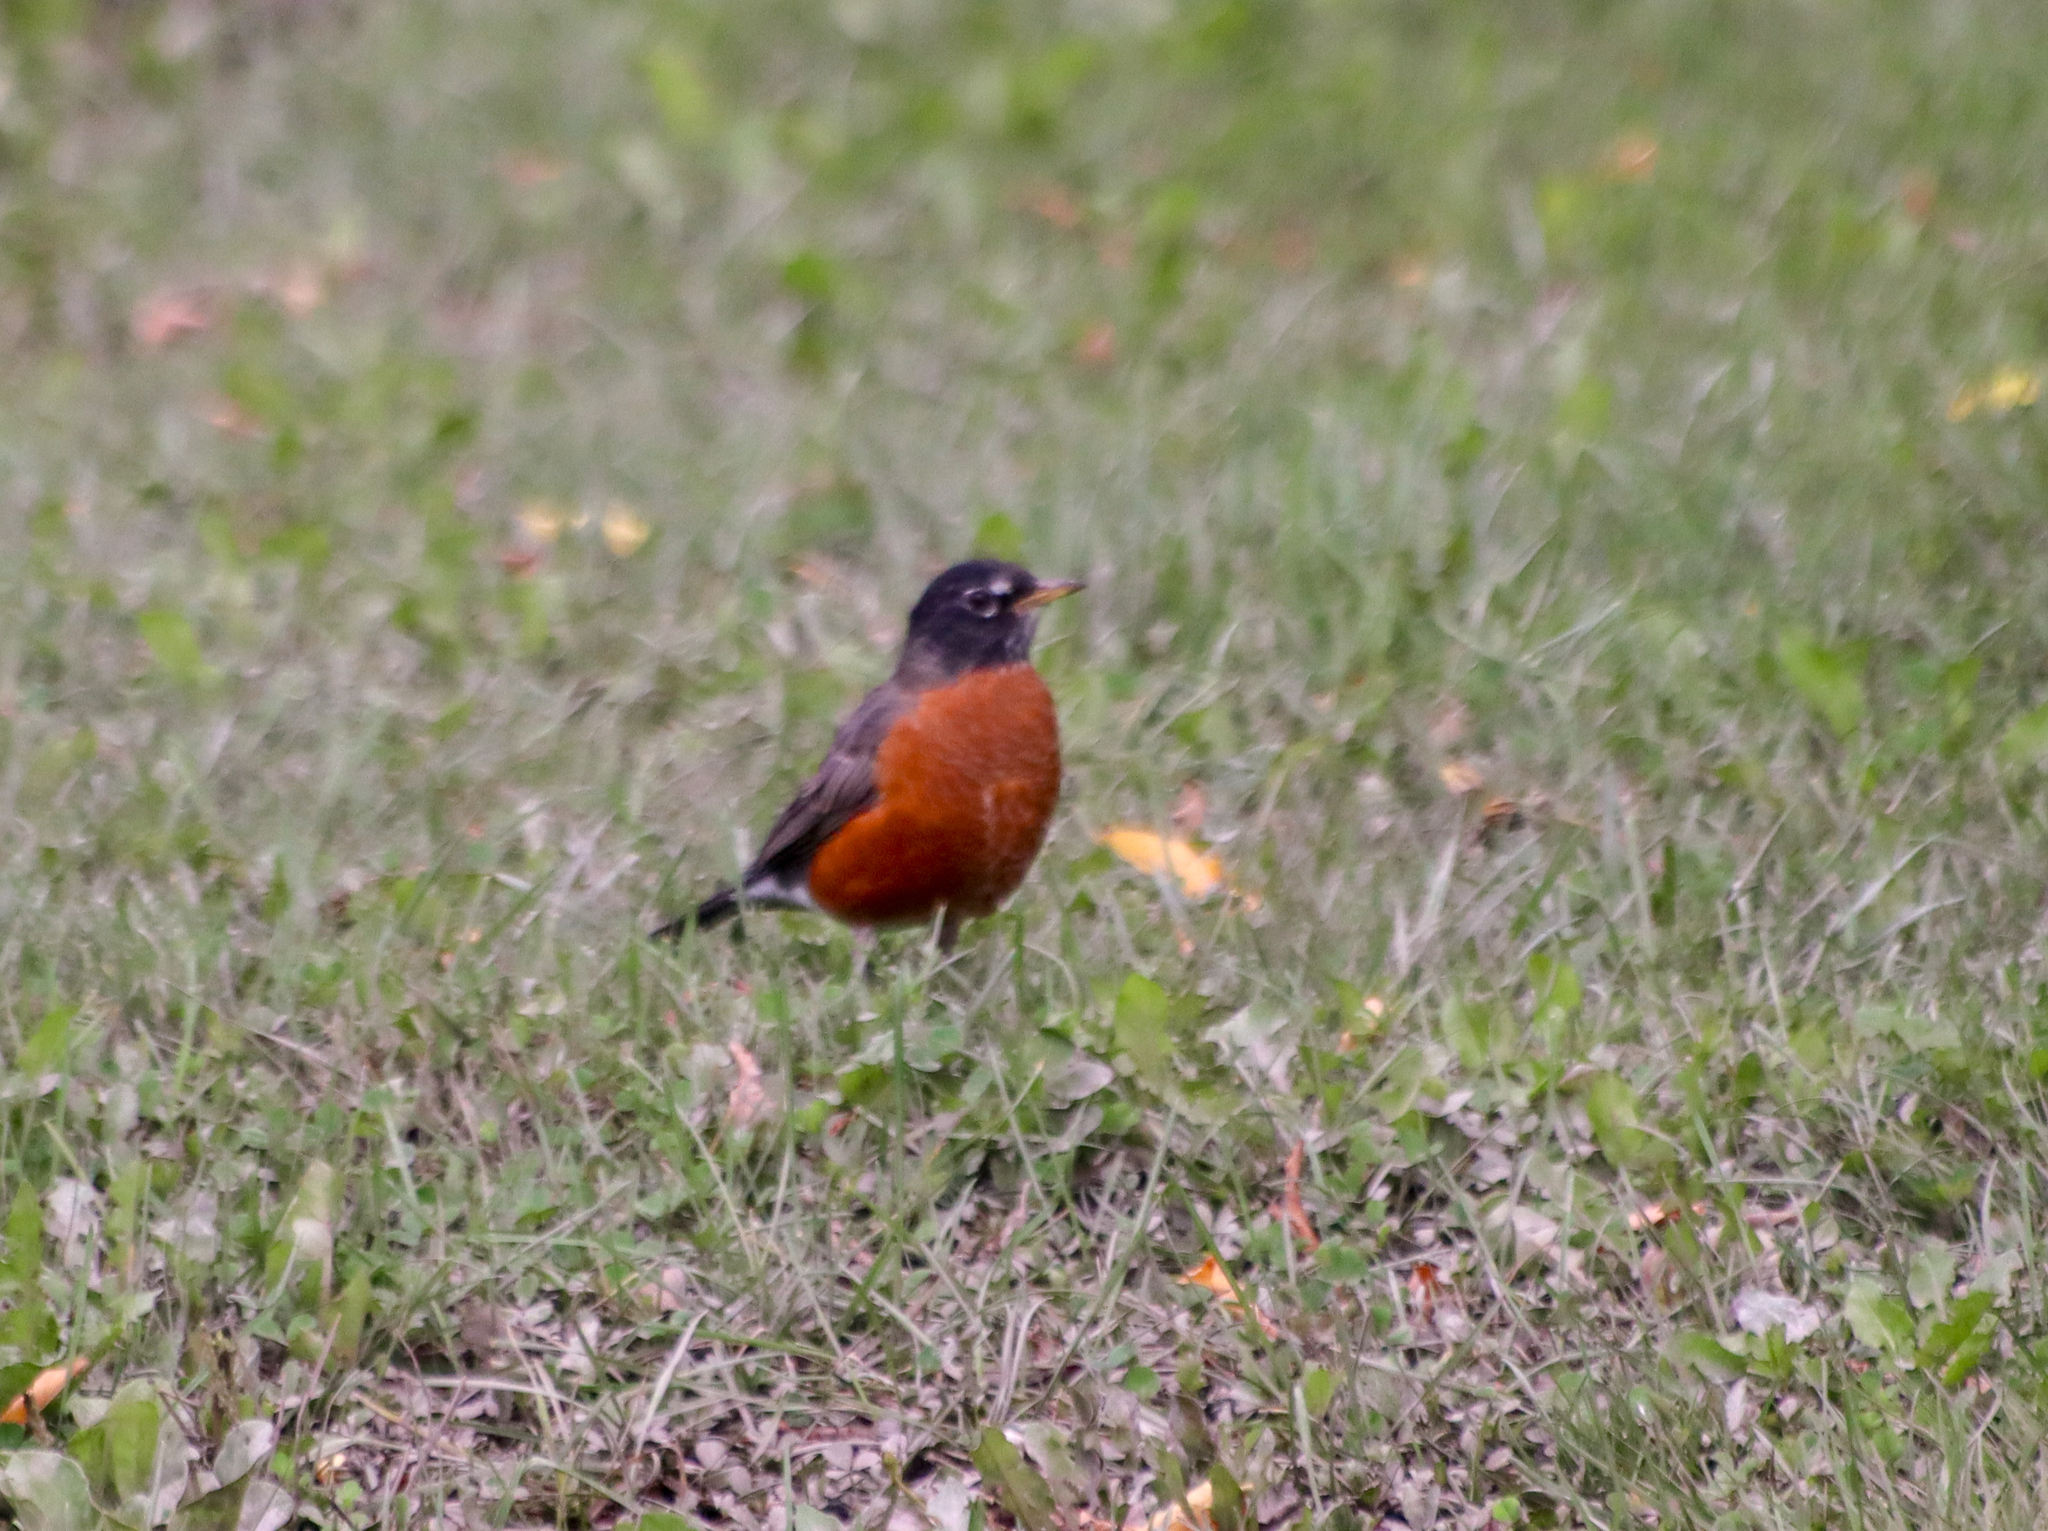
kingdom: Animalia
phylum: Chordata
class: Aves
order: Passeriformes
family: Turdidae
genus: Turdus
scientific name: Turdus migratorius
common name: American robin
